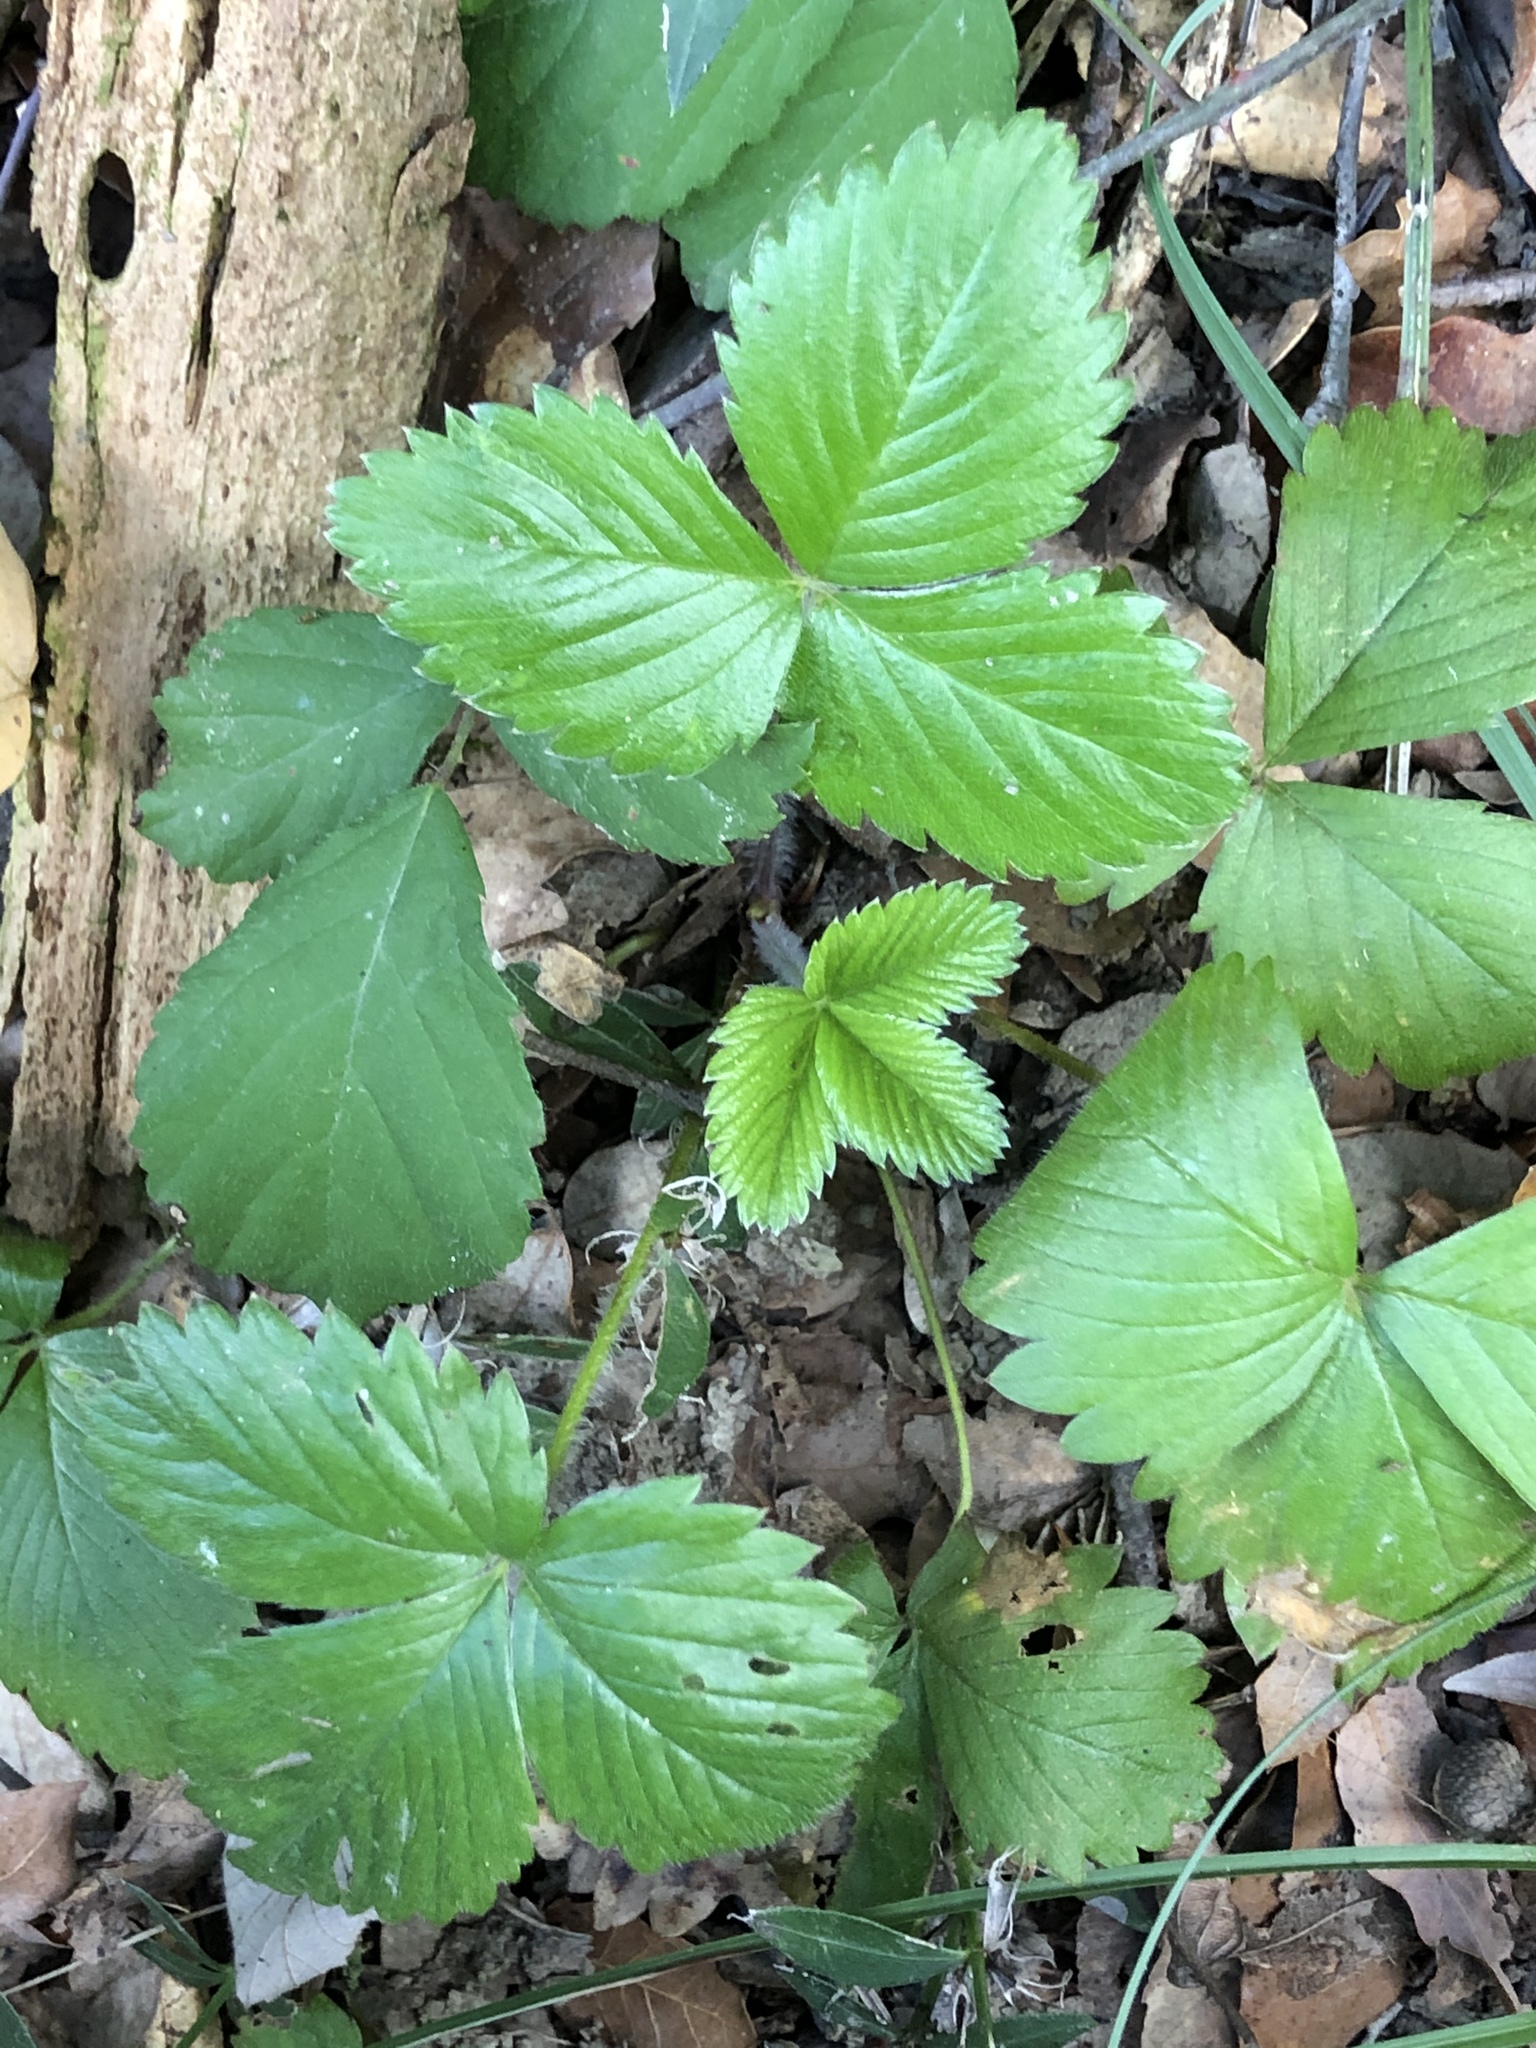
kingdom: Plantae
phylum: Tracheophyta
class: Magnoliopsida
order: Rosales
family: Rosaceae
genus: Fragaria
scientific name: Fragaria vesca
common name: Wild strawberry
